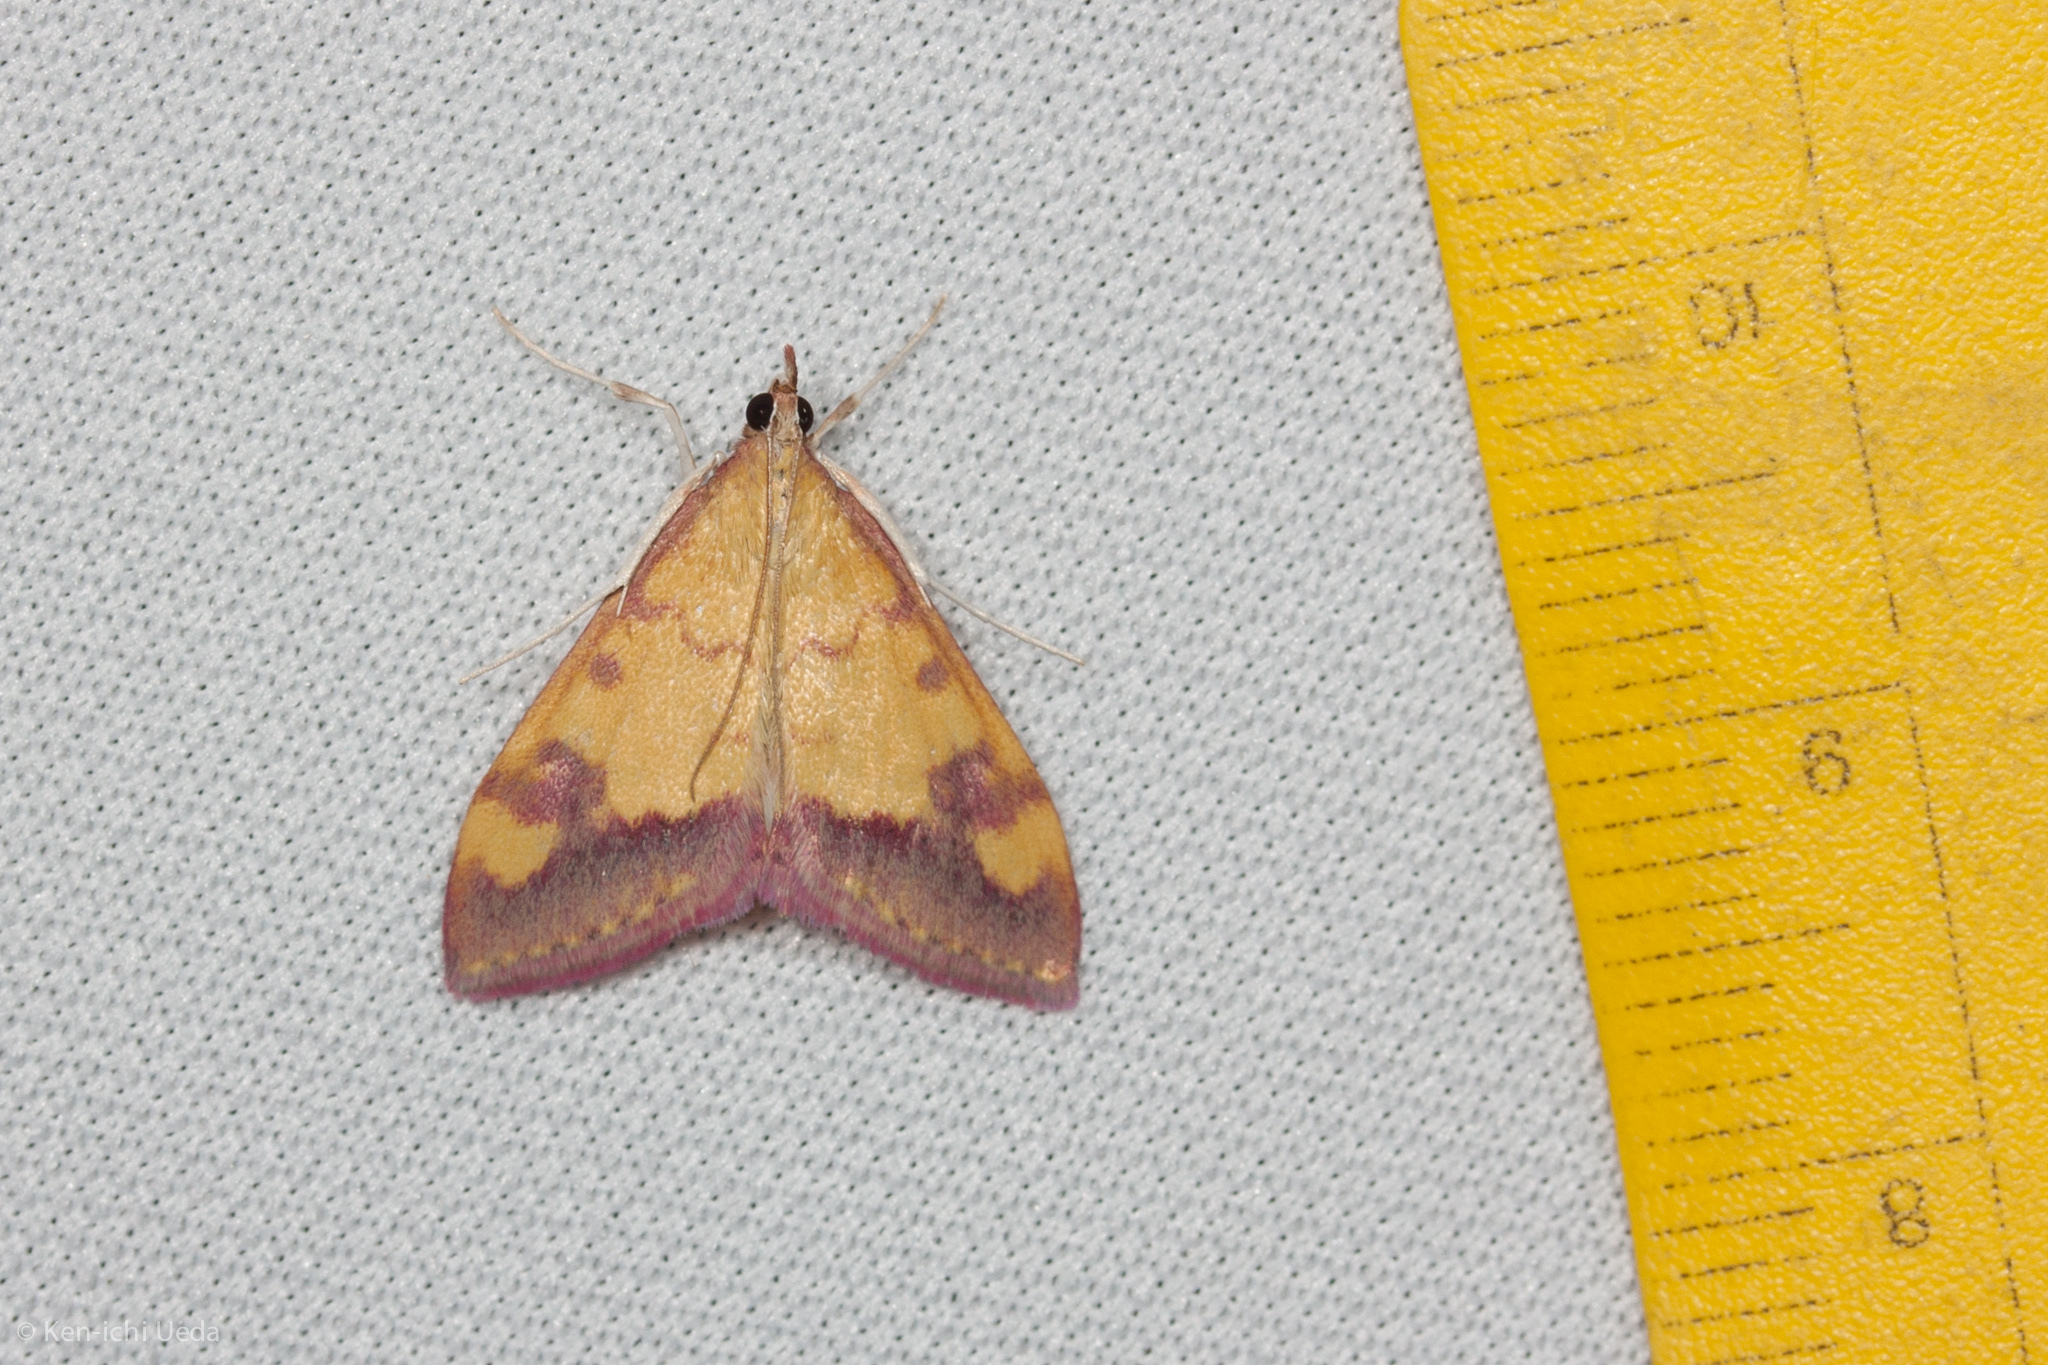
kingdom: Animalia
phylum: Arthropoda
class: Insecta
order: Lepidoptera
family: Crambidae
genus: Pyrausta
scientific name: Pyrausta perrubralis
